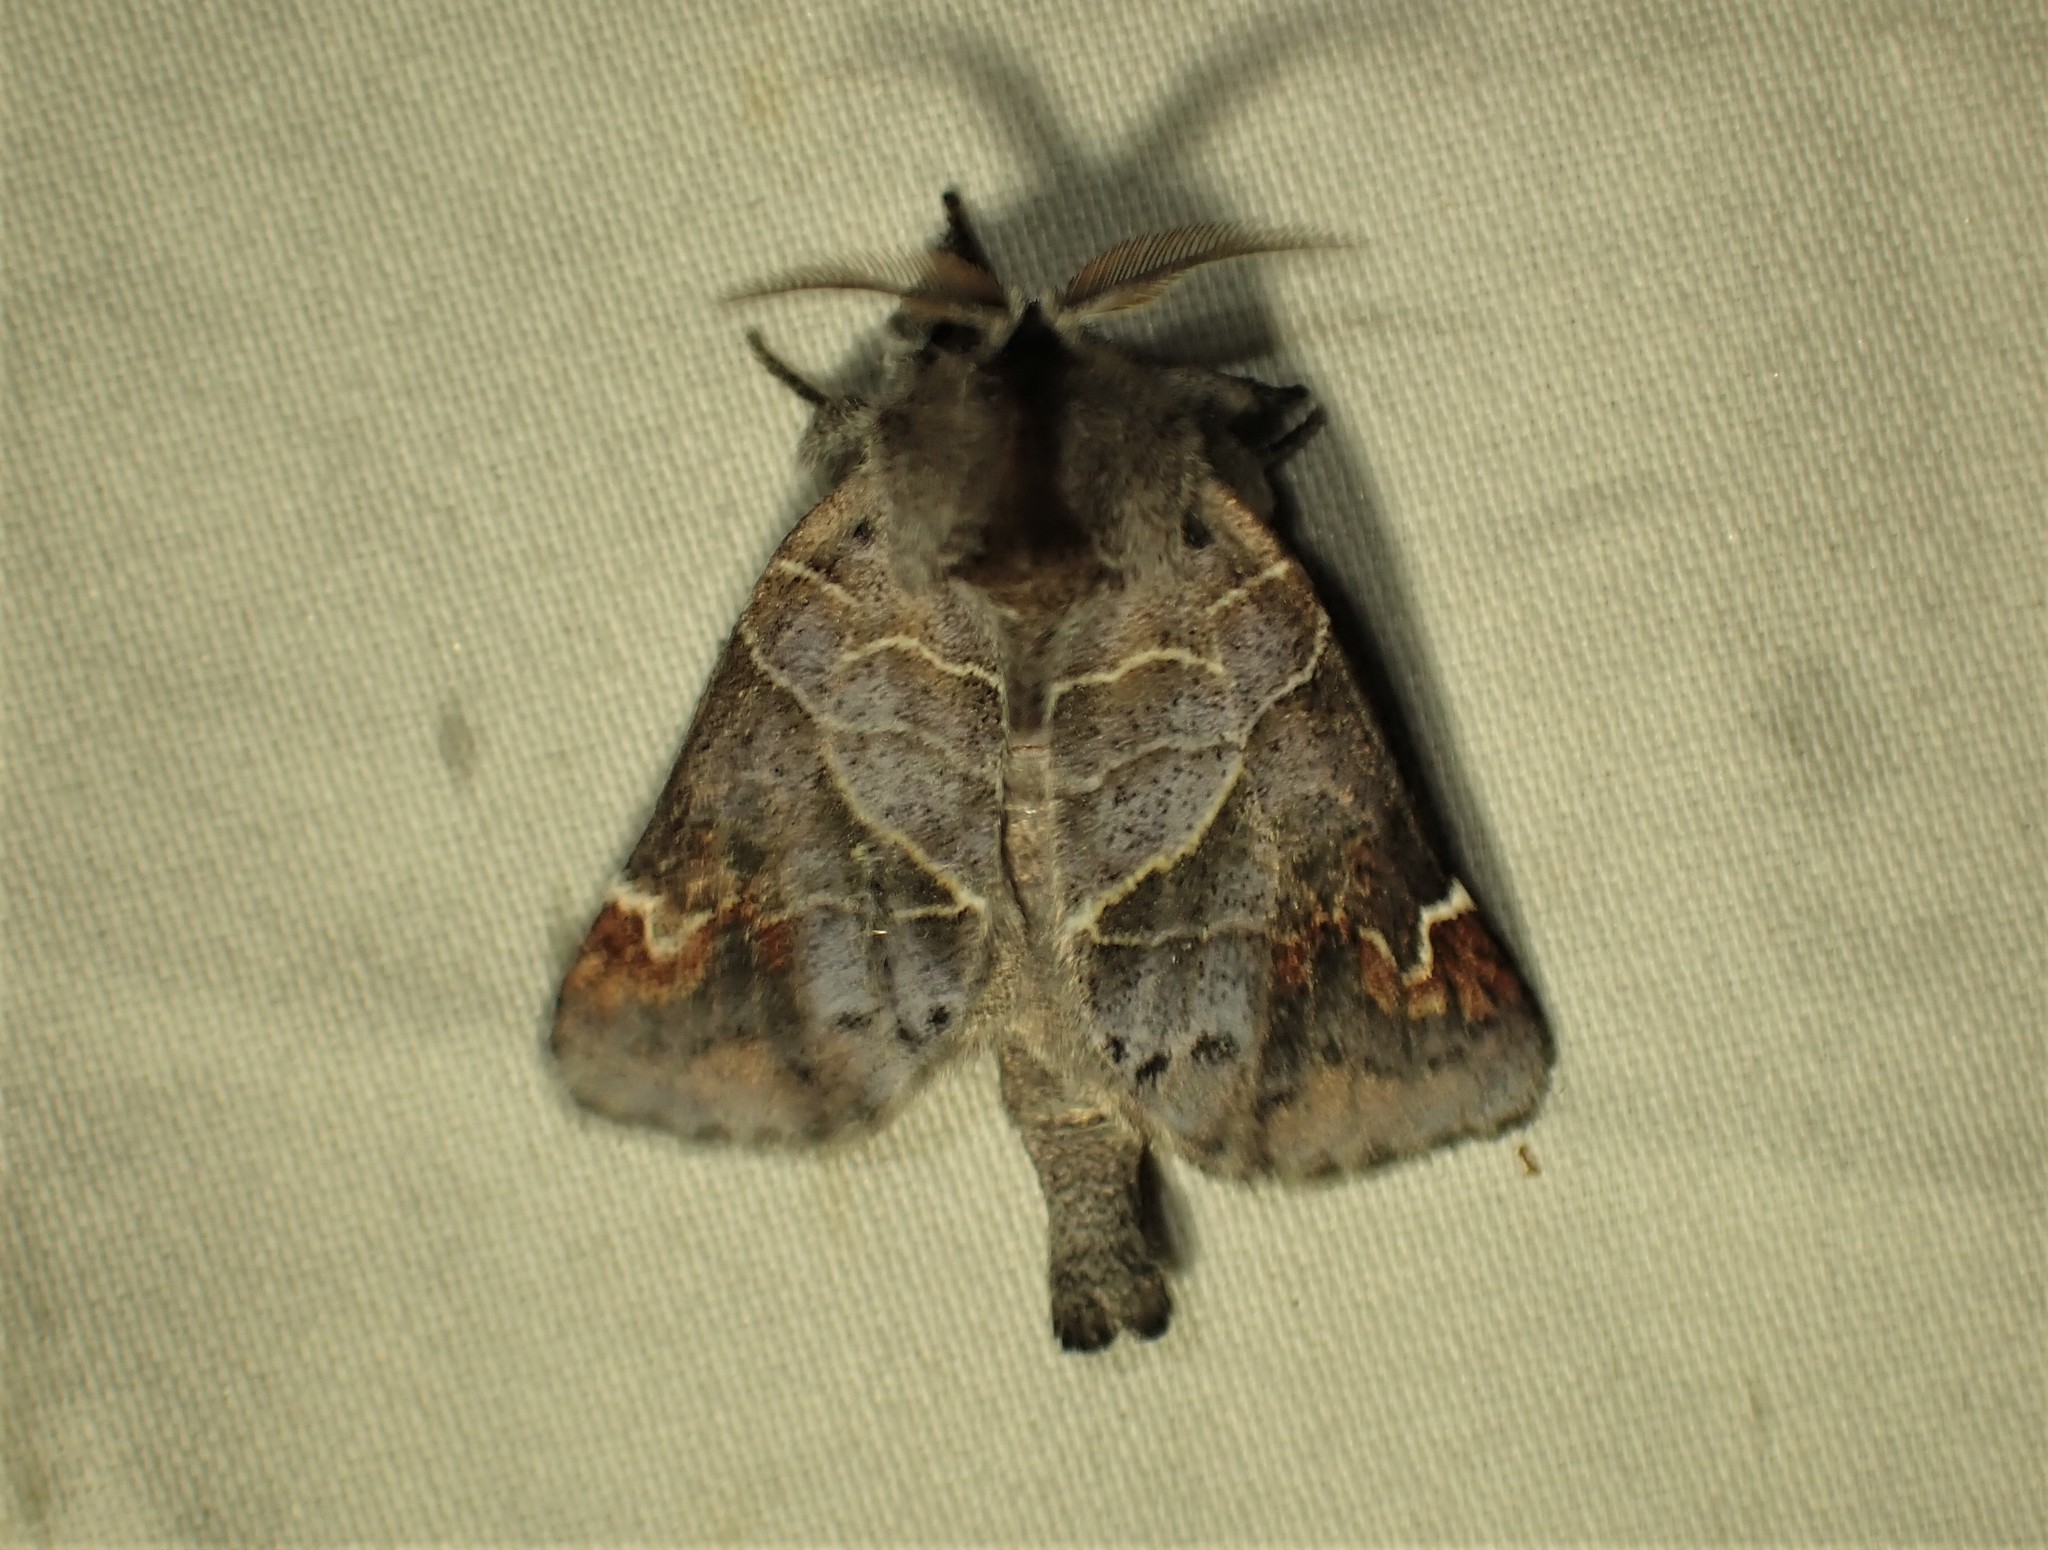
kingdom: Animalia
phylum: Arthropoda
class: Insecta
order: Lepidoptera
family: Notodontidae
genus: Clostera
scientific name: Clostera apicalis
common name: Apical prominent
